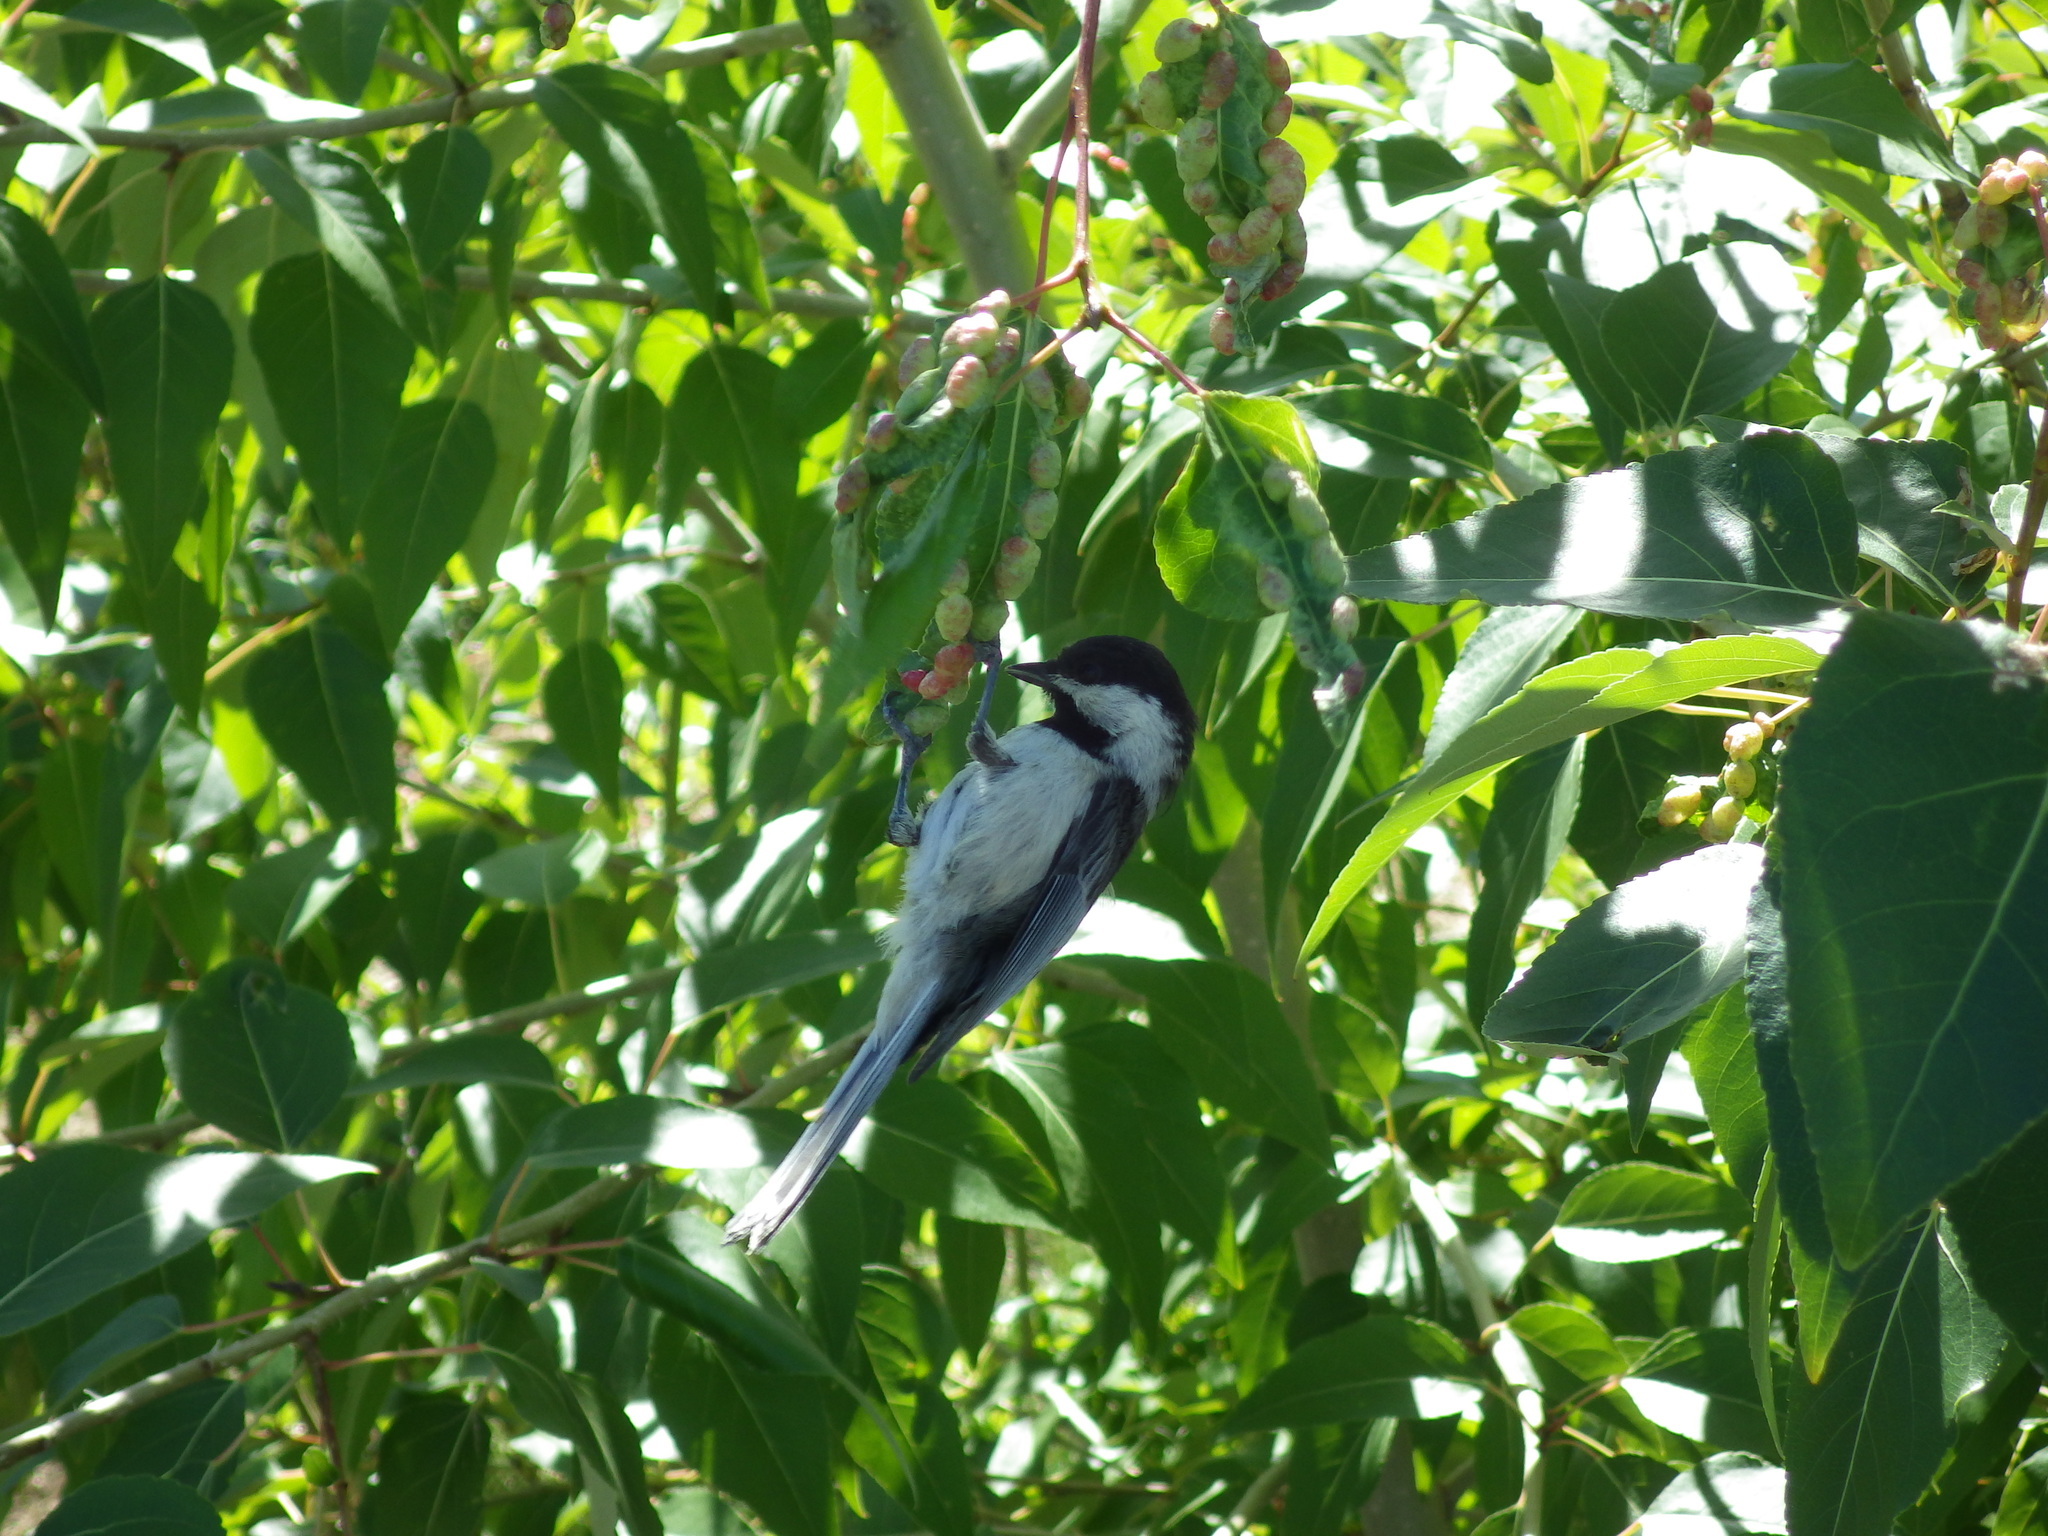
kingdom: Animalia
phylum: Chordata
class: Aves
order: Passeriformes
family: Paridae
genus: Poecile
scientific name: Poecile atricapillus
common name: Black-capped chickadee
